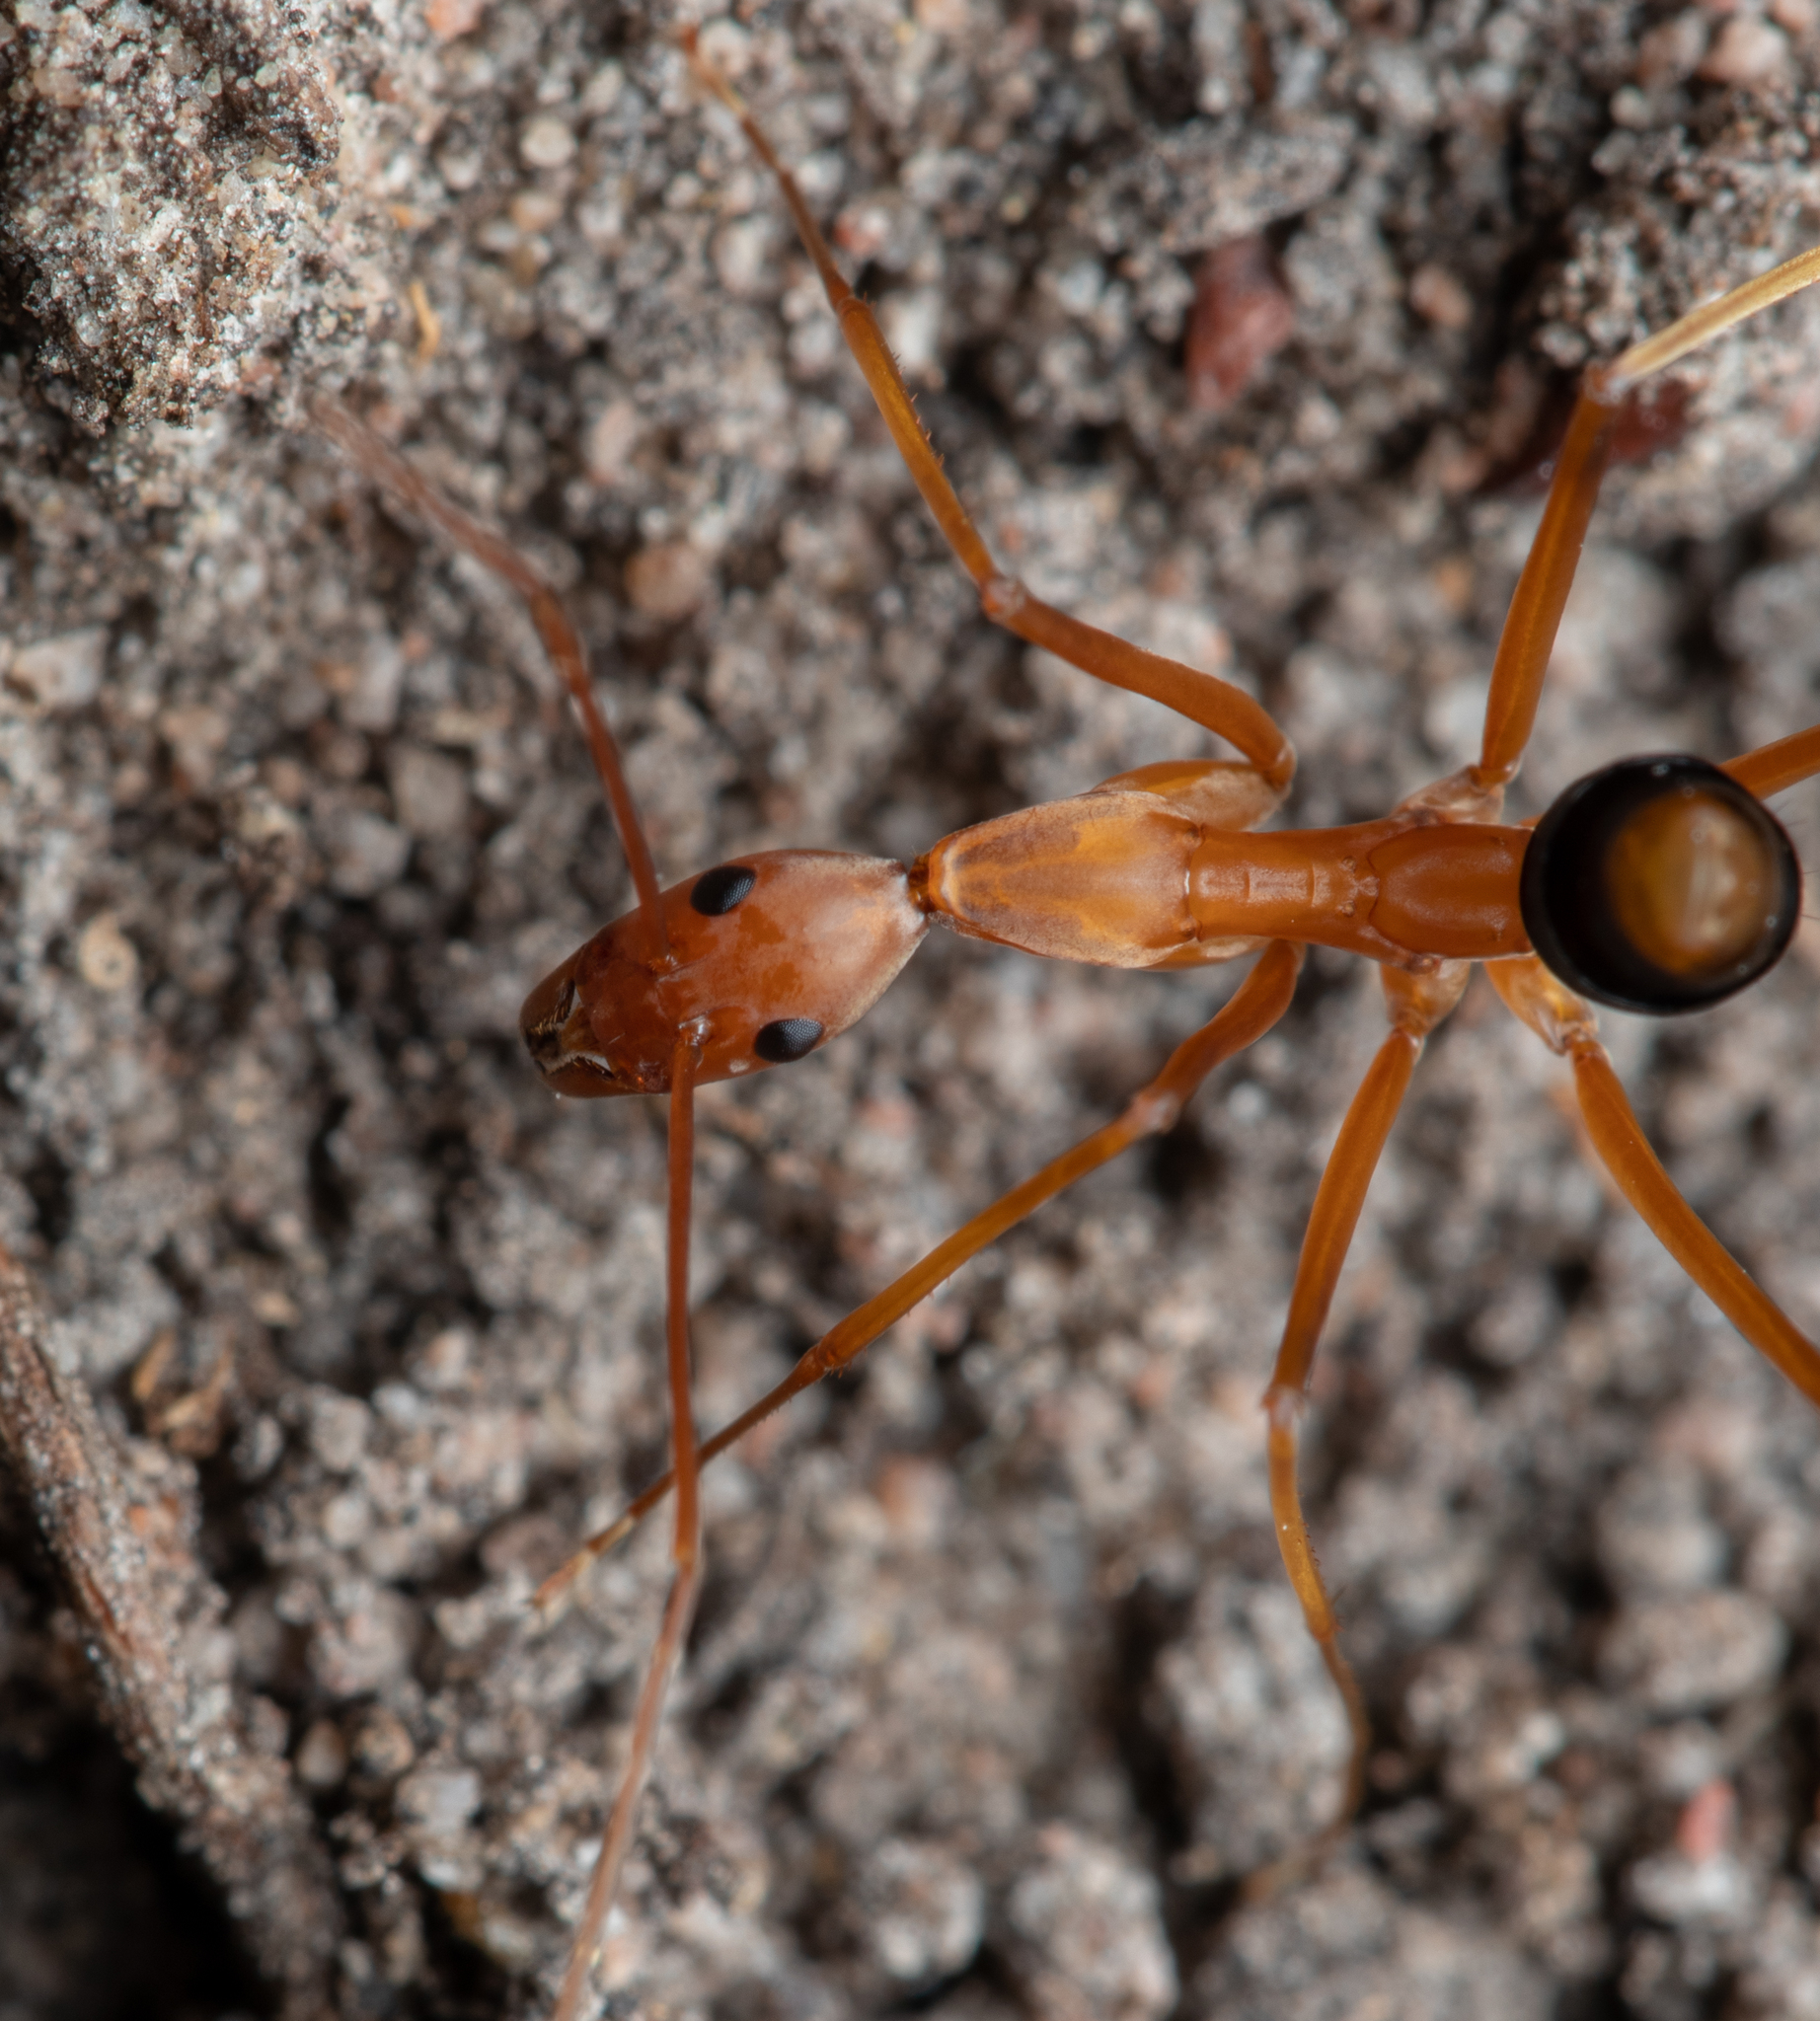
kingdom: Animalia
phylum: Arthropoda
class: Insecta
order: Hymenoptera
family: Formicidae
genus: Leptomyrmex
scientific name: Leptomyrmex rufipes
